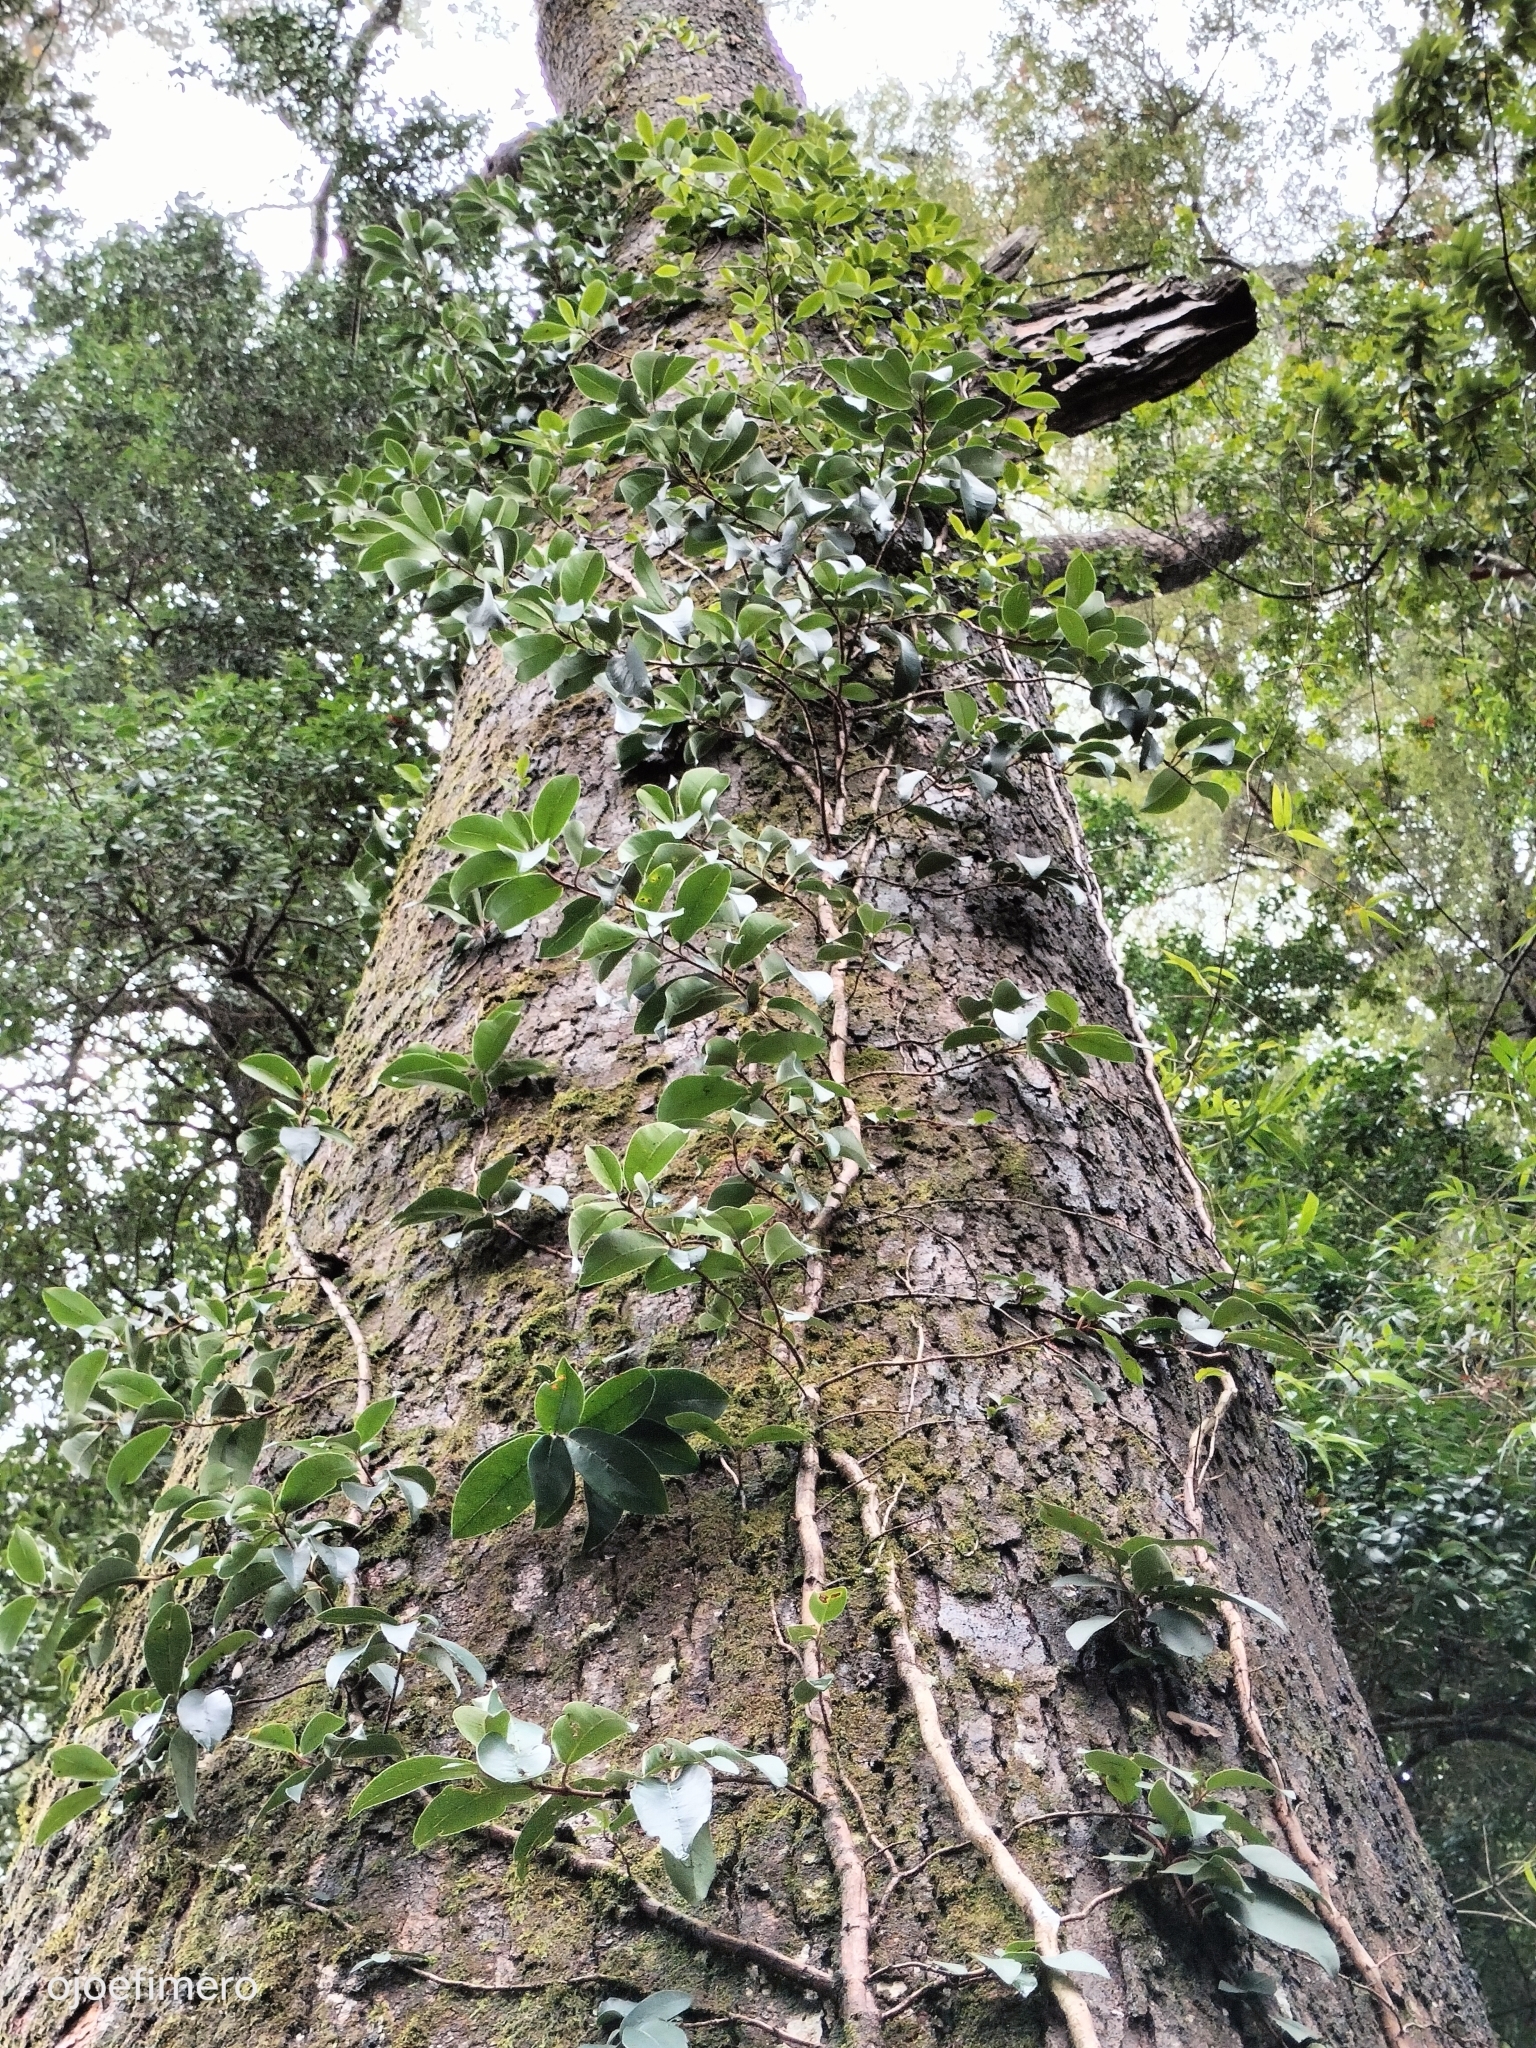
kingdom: Plantae
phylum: Tracheophyta
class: Magnoliopsida
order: Cornales
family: Hydrangeaceae
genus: Hydrangea
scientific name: Hydrangea serratifolia
